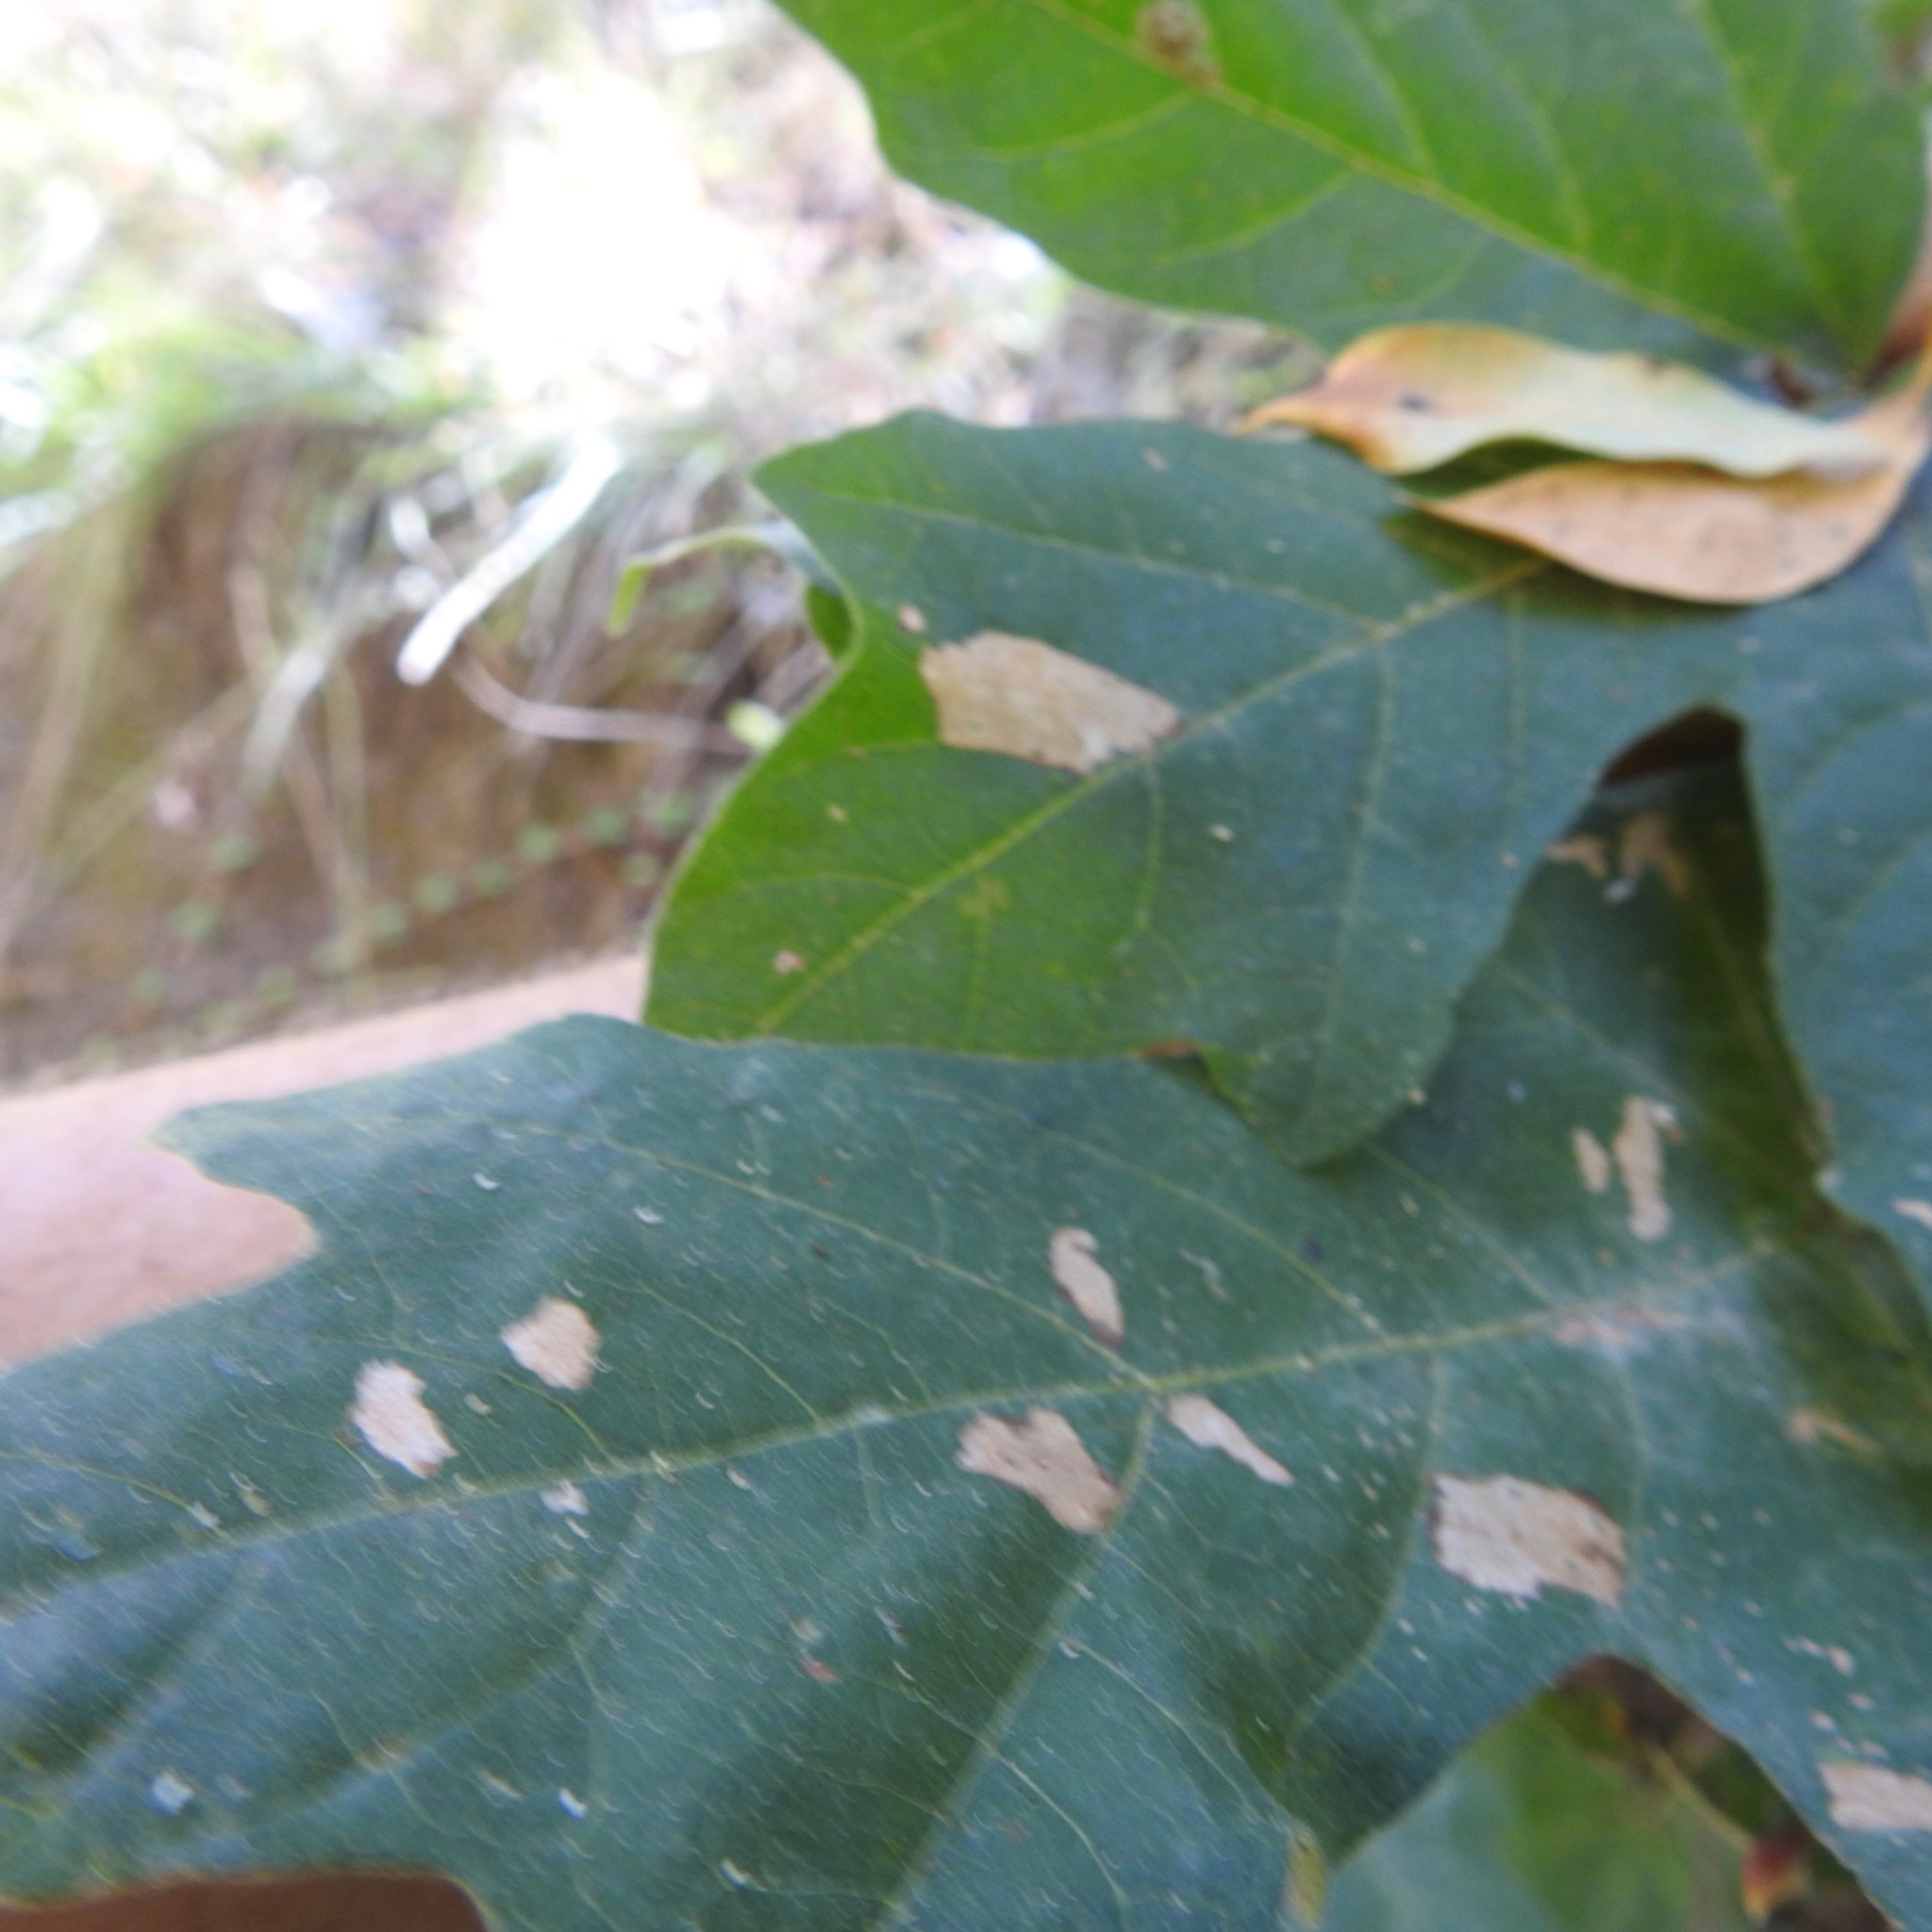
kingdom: Plantae
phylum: Tracheophyta
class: Magnoliopsida
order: Sapindales
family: Sapindaceae
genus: Acer
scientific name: Acer macrophyllum
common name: Oregon maple
